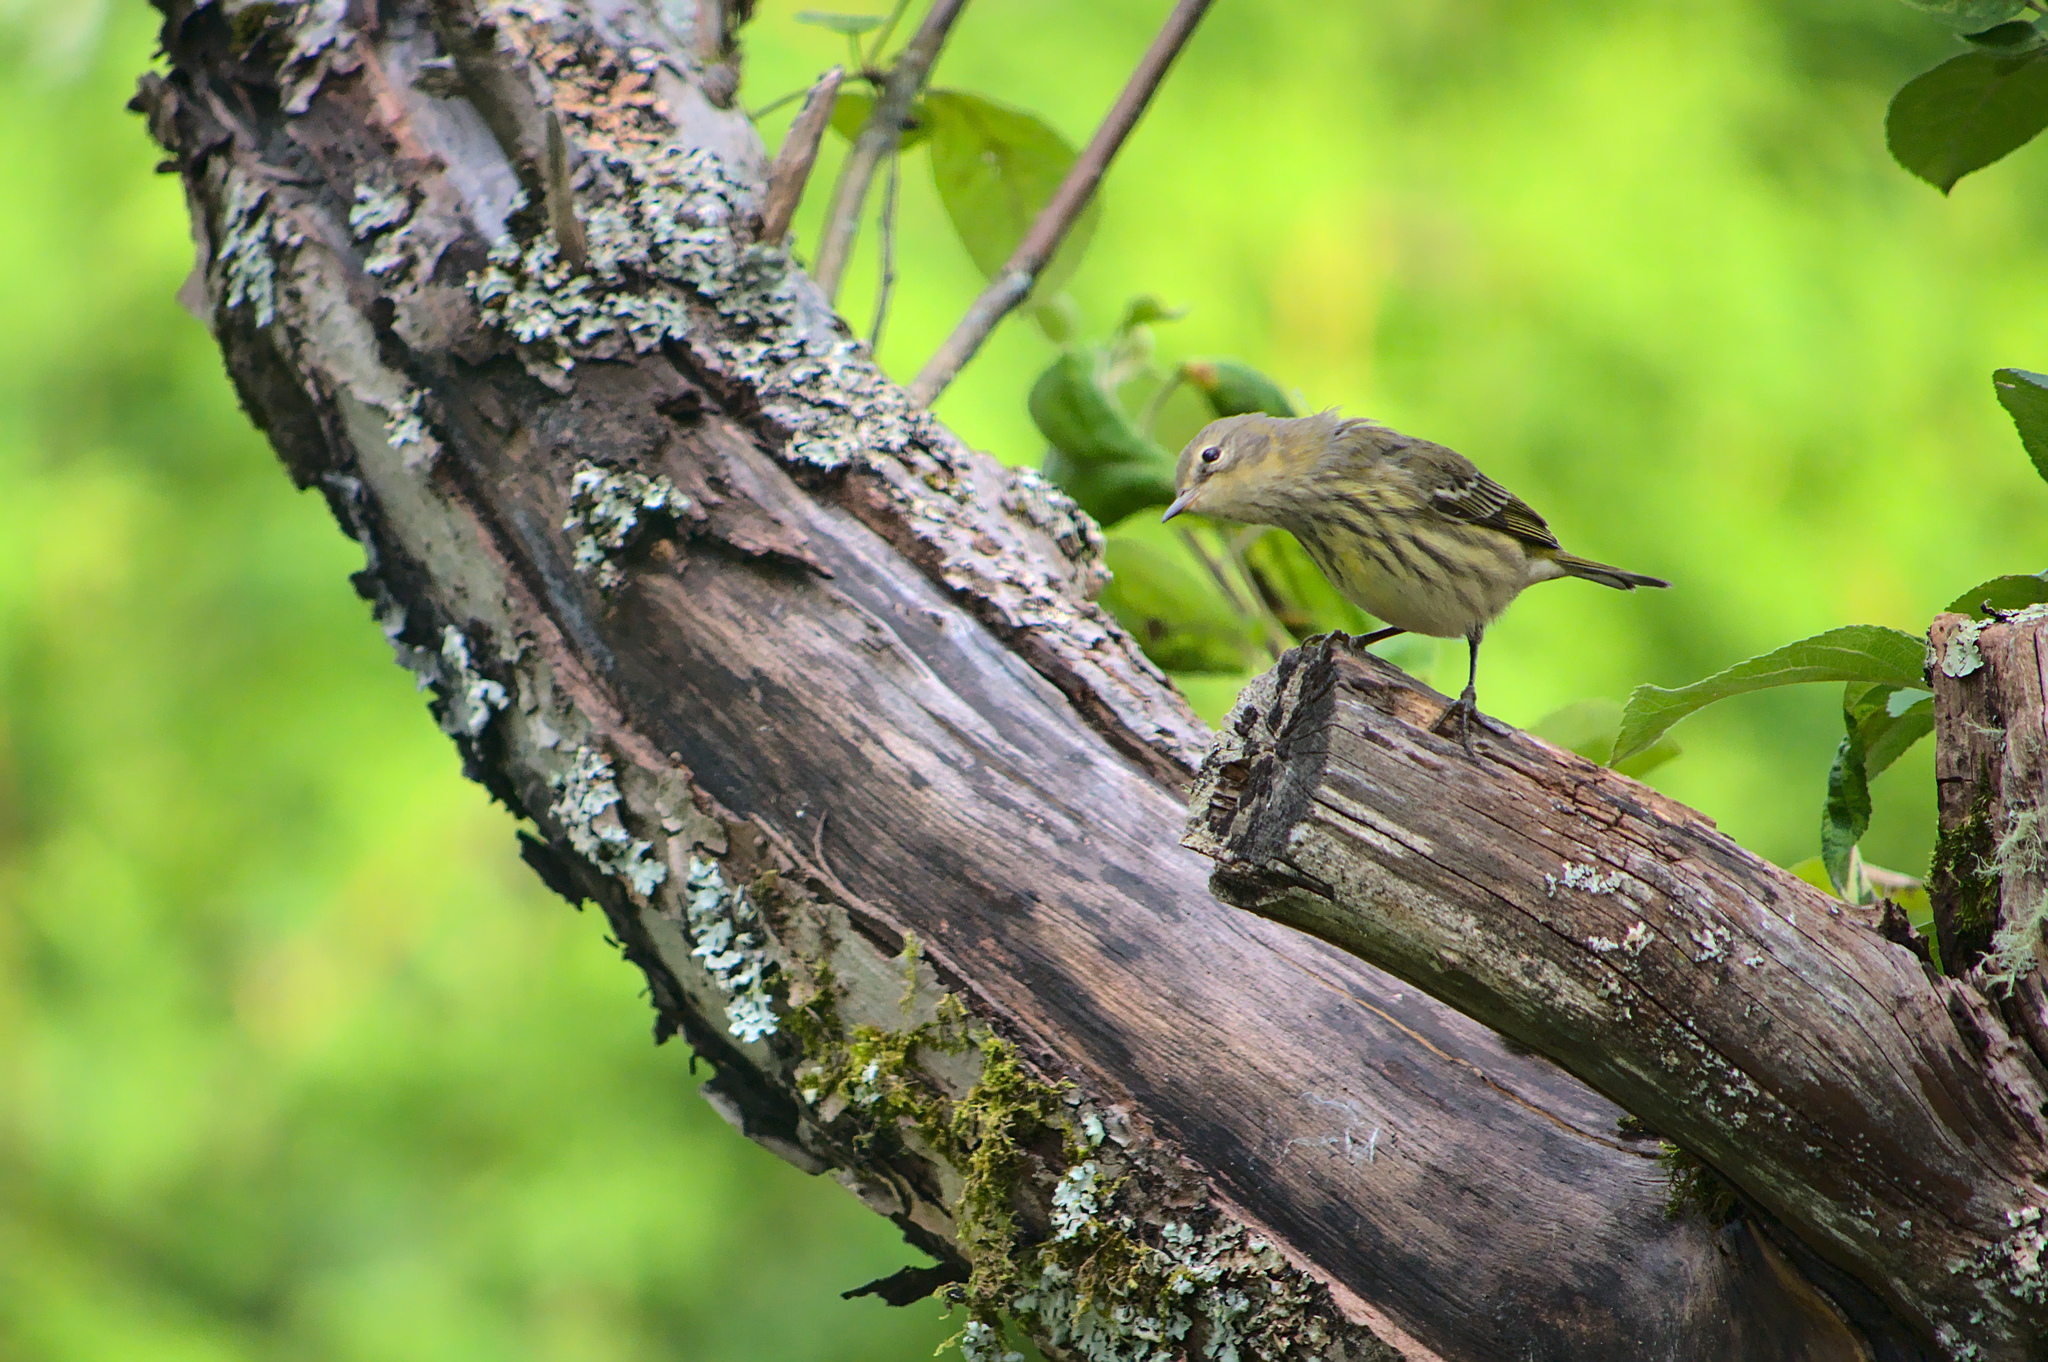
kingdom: Animalia
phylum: Chordata
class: Aves
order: Passeriformes
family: Parulidae
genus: Setophaga
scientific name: Setophaga tigrina
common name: Cape may warbler
